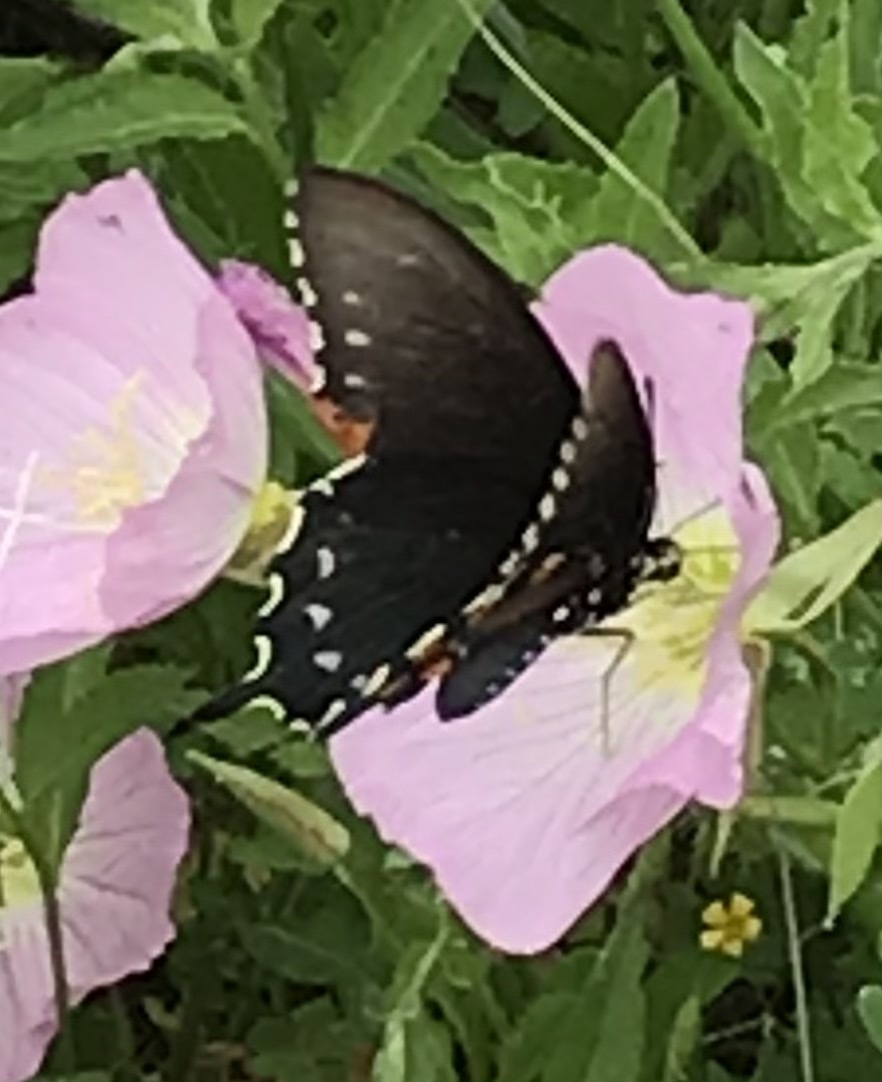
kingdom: Animalia
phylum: Arthropoda
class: Insecta
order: Lepidoptera
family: Papilionidae
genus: Battus
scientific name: Battus philenor
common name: Pipevine swallowtail
